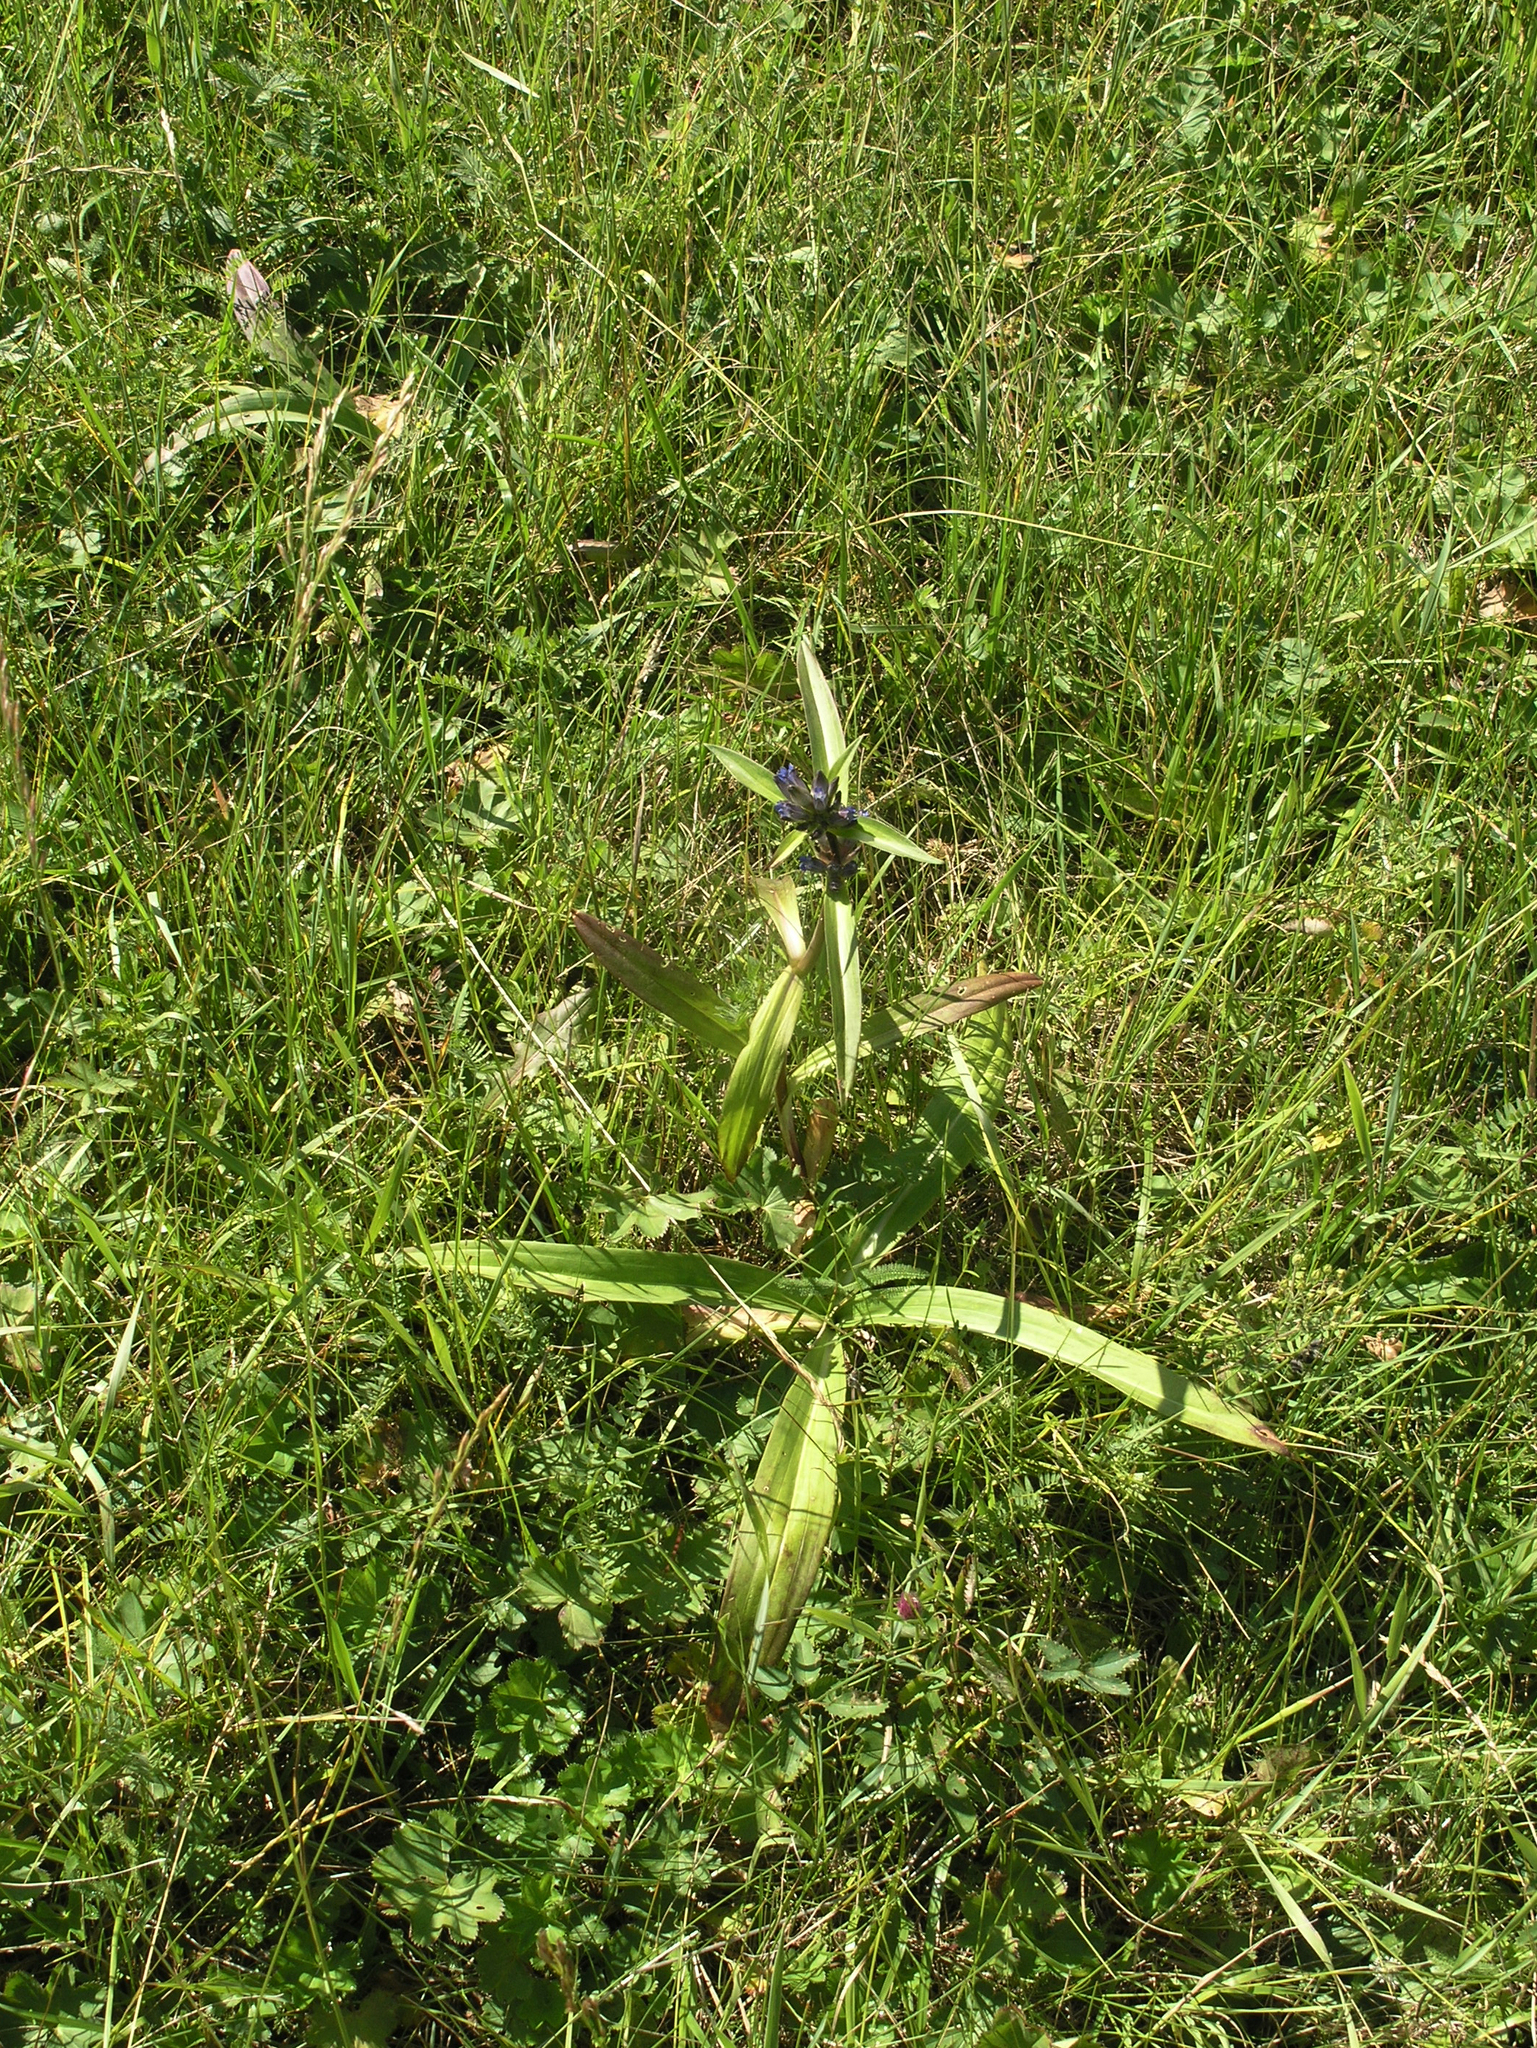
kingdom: Plantae
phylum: Tracheophyta
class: Magnoliopsida
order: Gentianales
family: Gentianaceae
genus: Gentiana
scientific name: Gentiana macrophylla
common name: Large-leaf gentian
